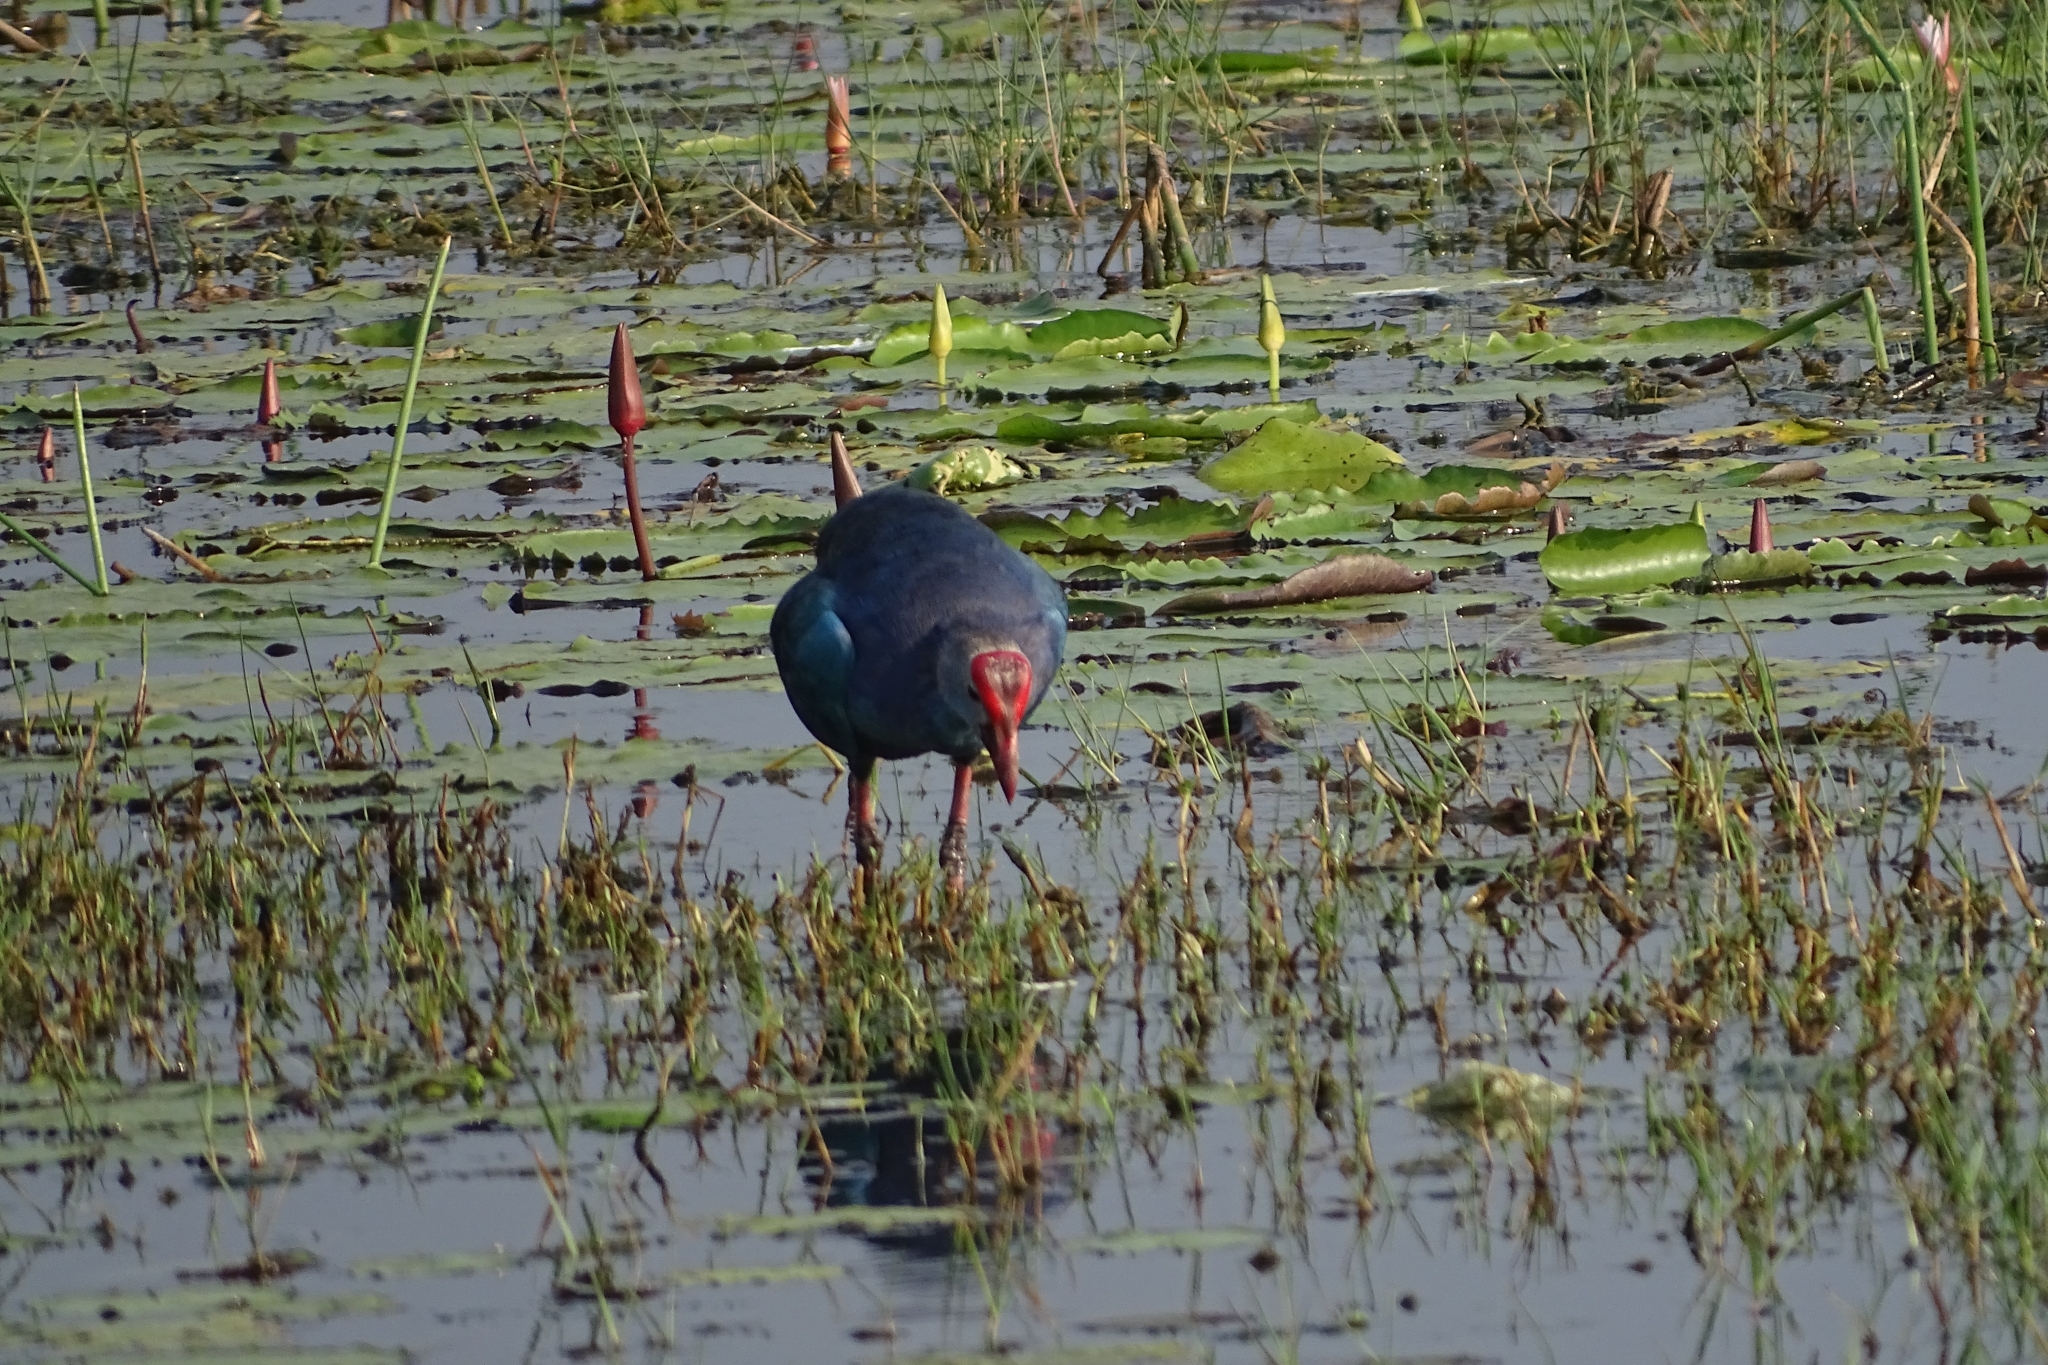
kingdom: Animalia
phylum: Chordata
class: Aves
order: Gruiformes
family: Rallidae
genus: Porphyrio
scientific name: Porphyrio porphyrio
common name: Purple swamphen
